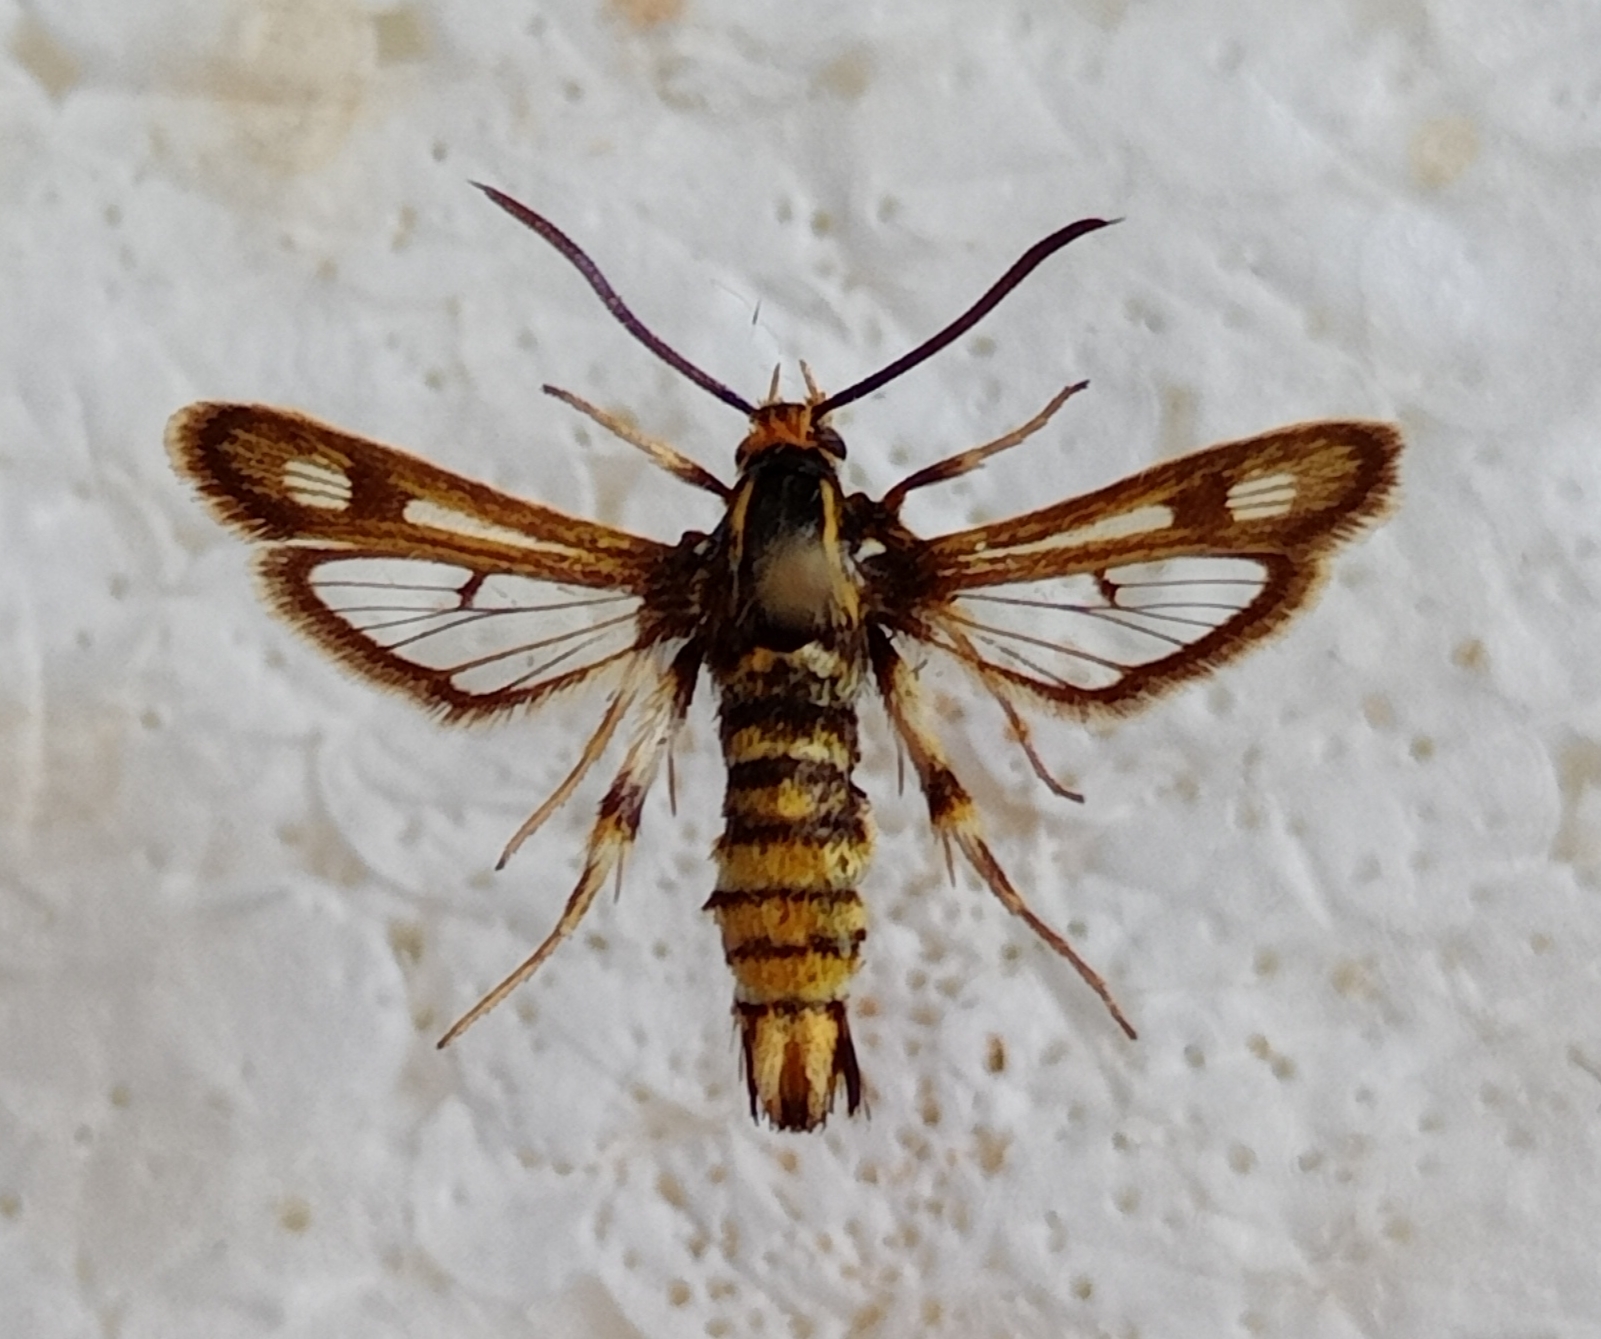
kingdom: Animalia
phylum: Arthropoda
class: Insecta
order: Lepidoptera
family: Sesiidae
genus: Chamaesphecia
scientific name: Chamaesphecia annellata
